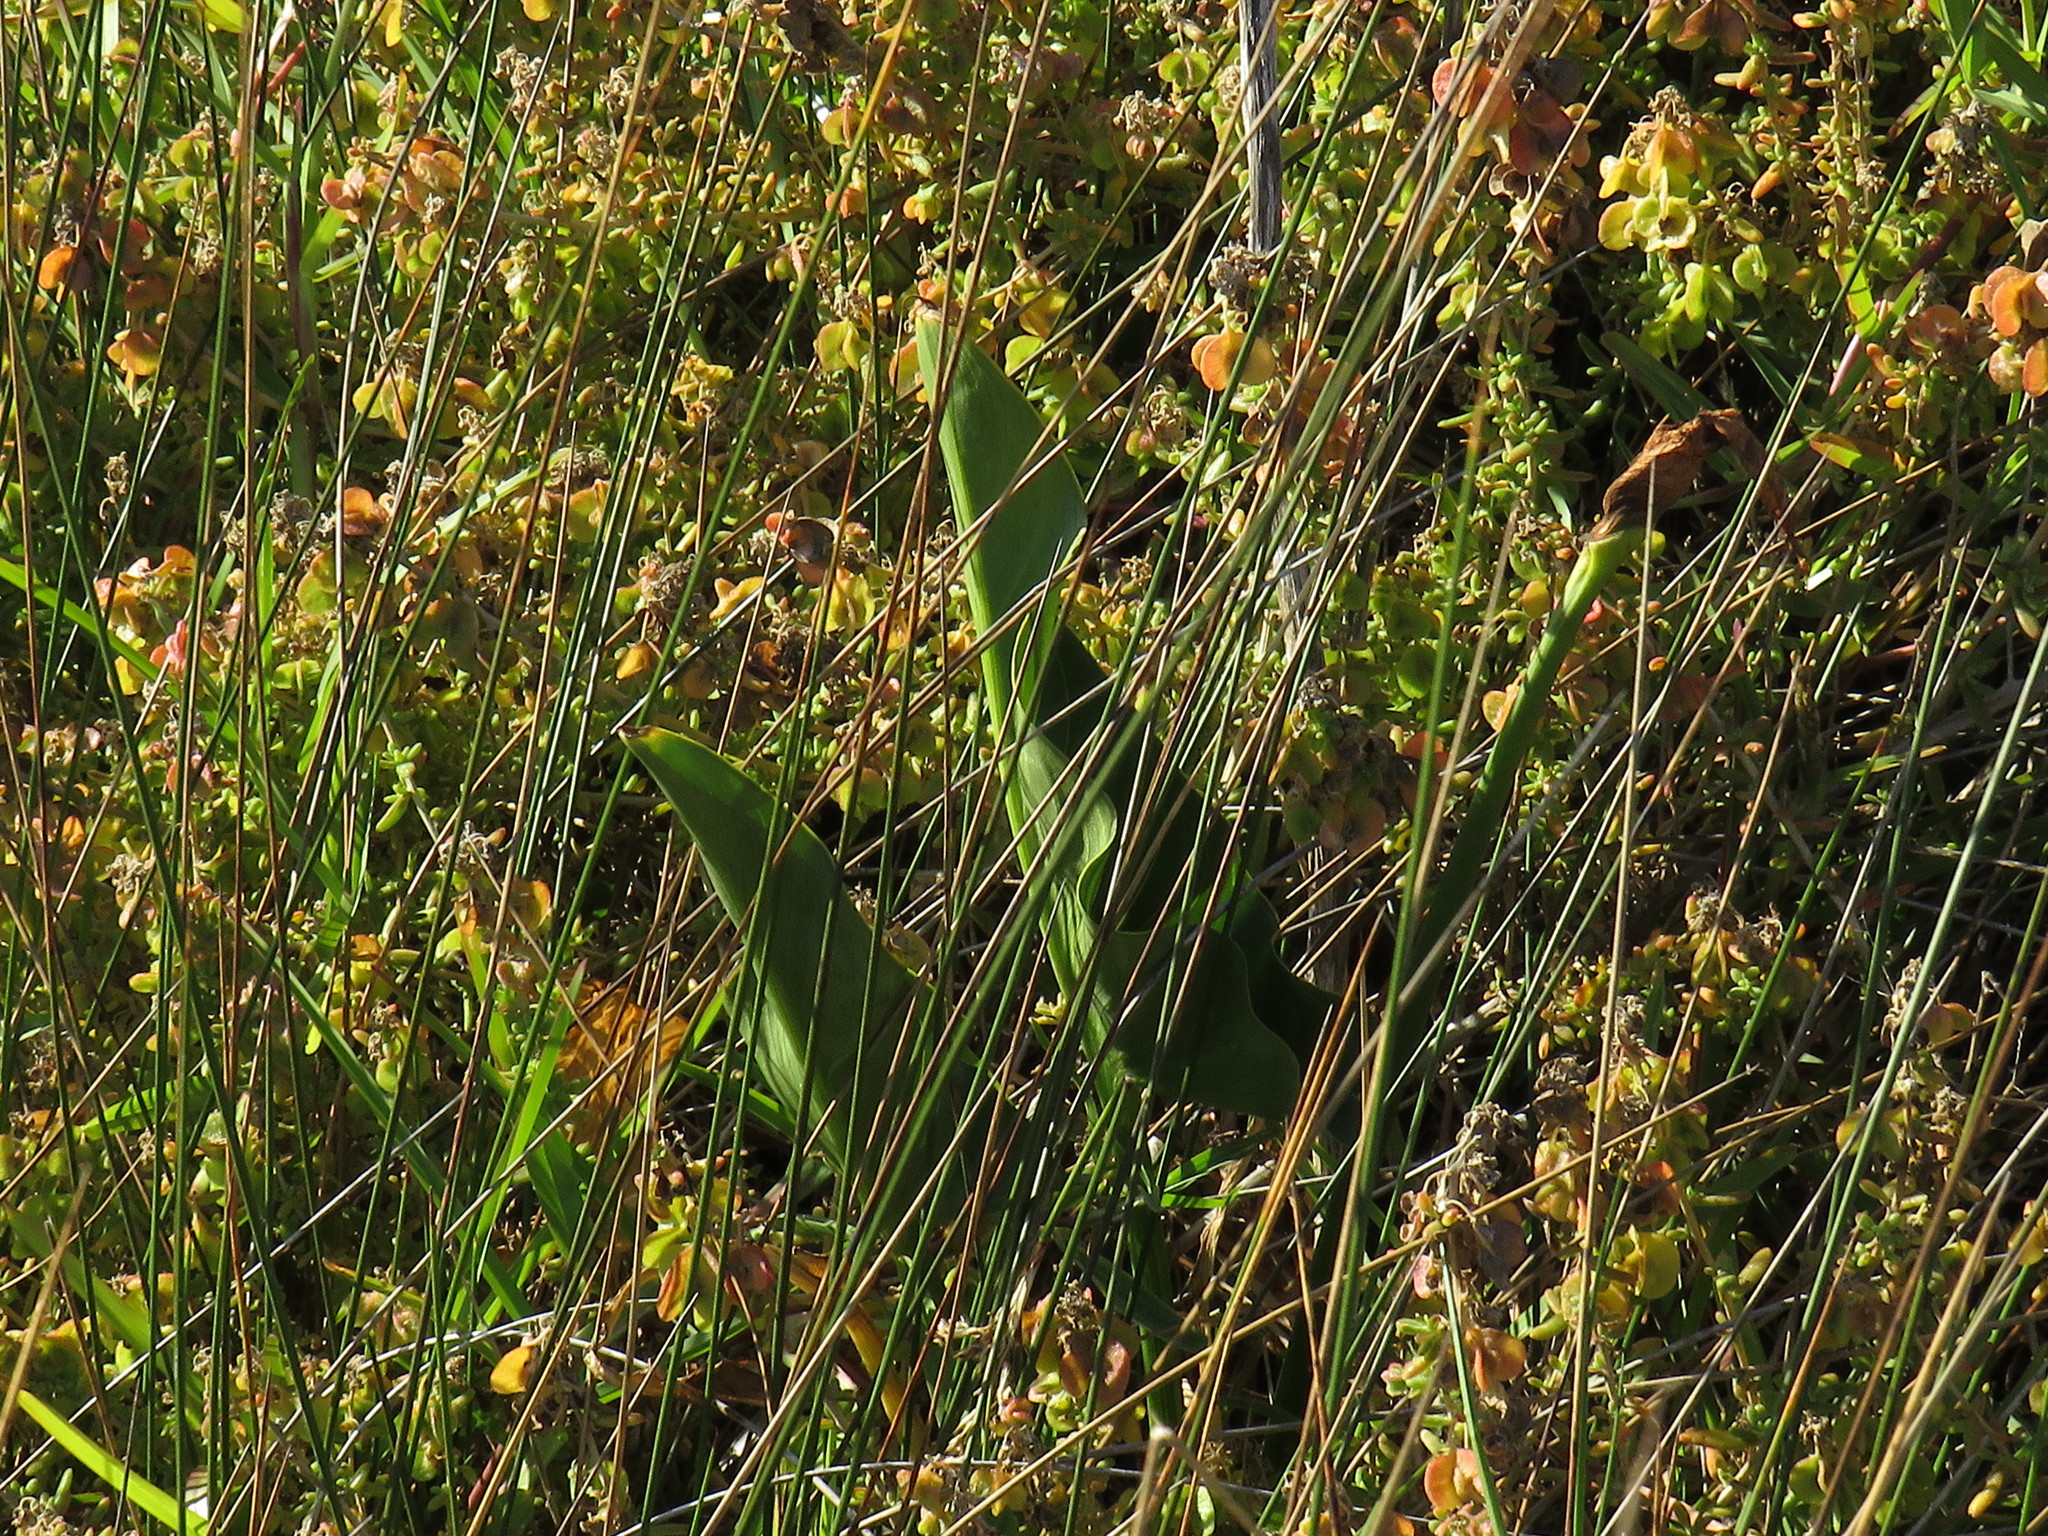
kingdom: Plantae
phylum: Tracheophyta
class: Liliopsida
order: Alismatales
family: Araceae
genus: Zantedeschia
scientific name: Zantedeschia aethiopica
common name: Altar-lily
